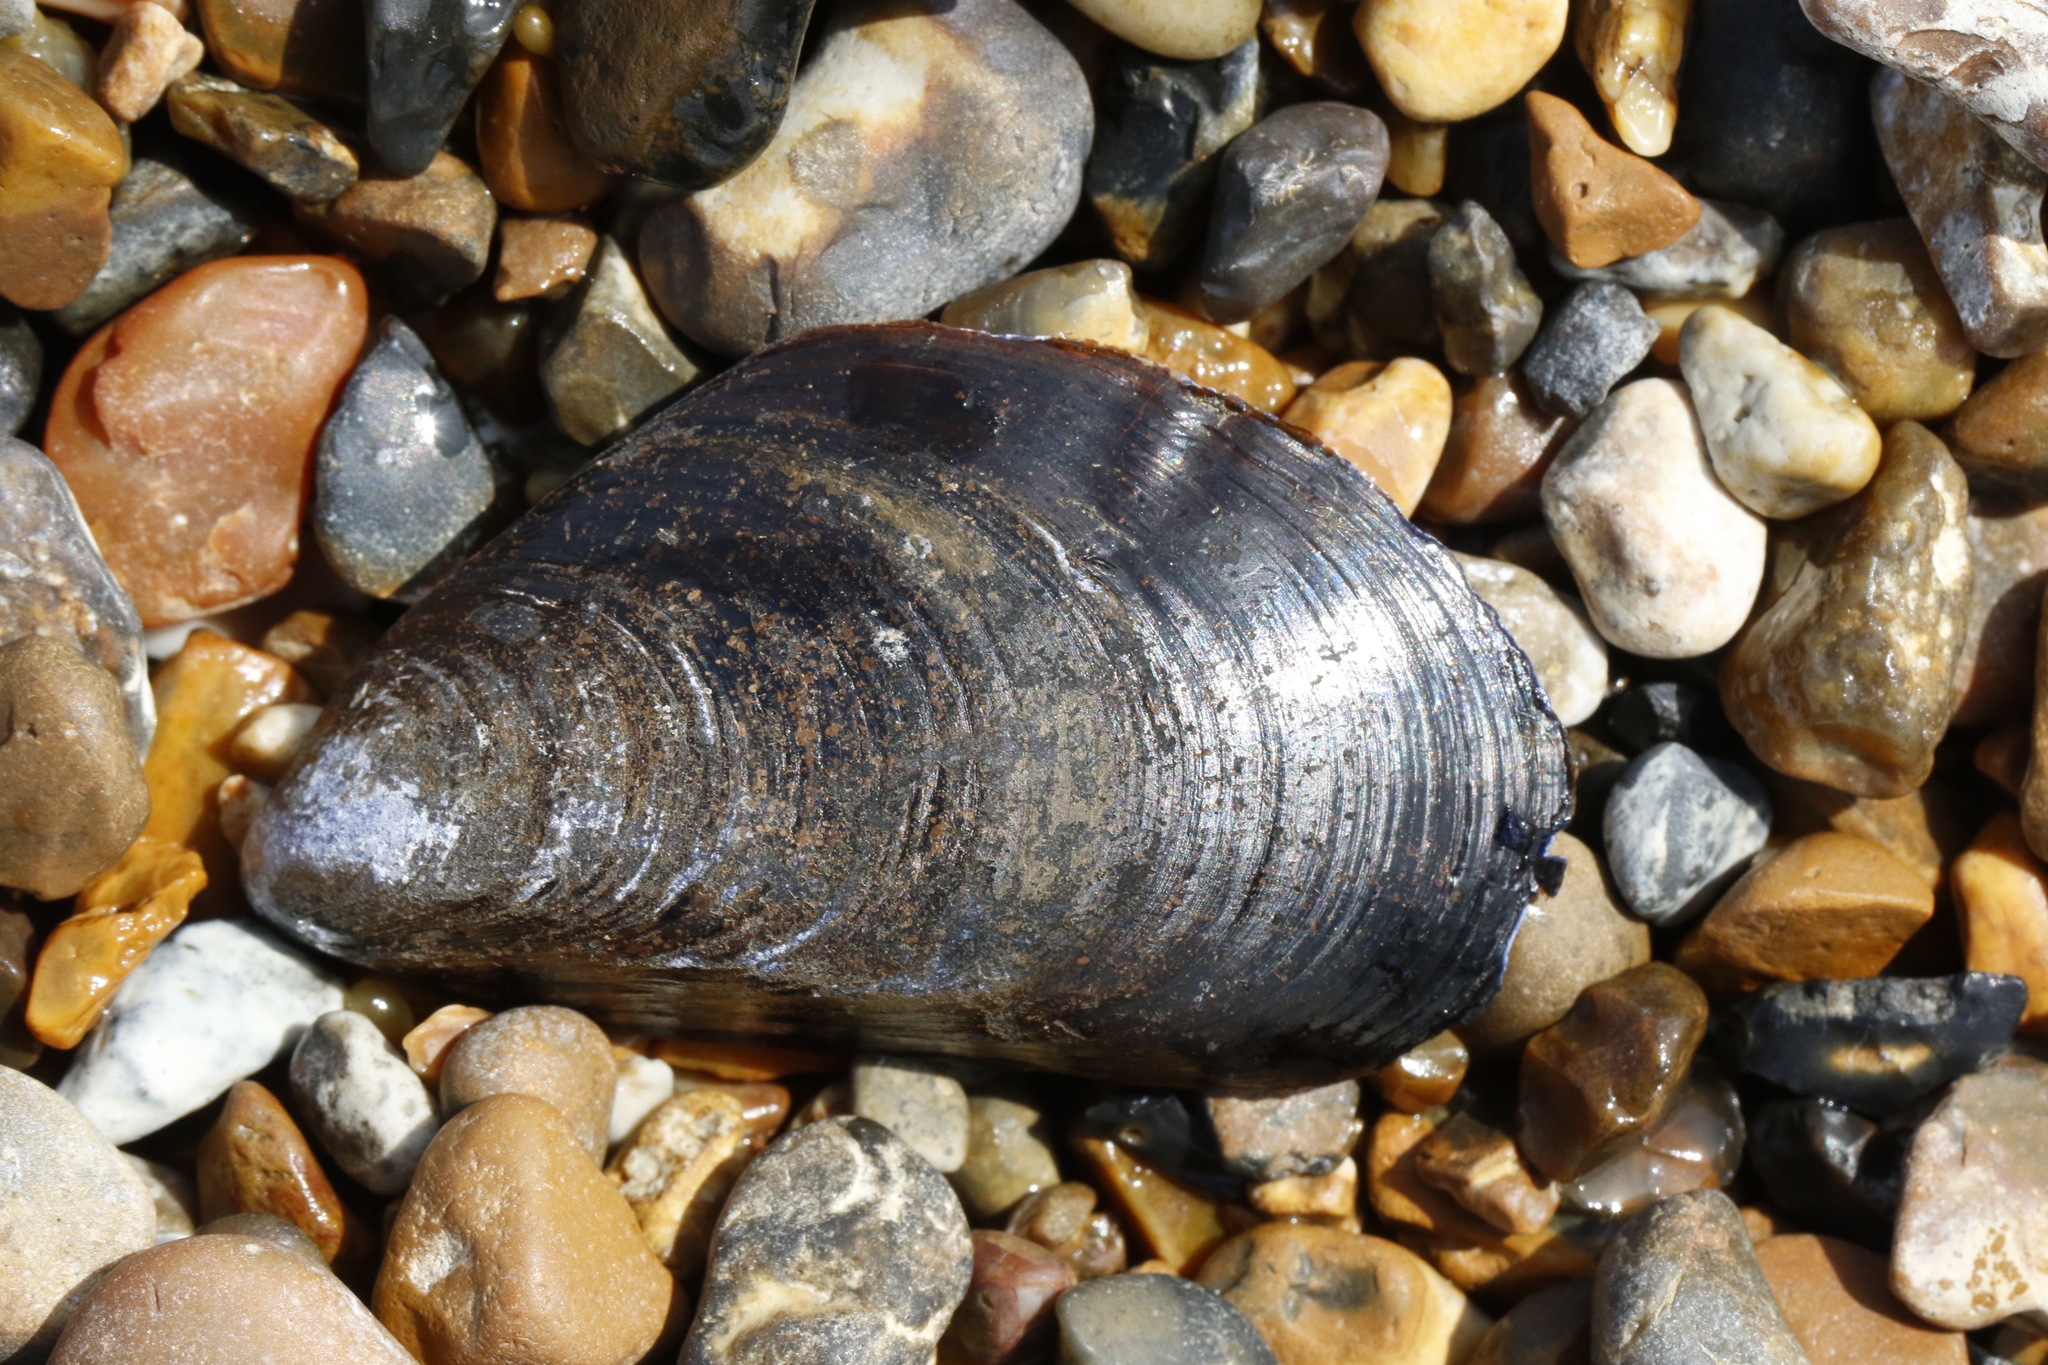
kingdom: Animalia
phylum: Mollusca
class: Bivalvia
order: Mytilida
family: Mytilidae
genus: Mytilus
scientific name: Mytilus edulis
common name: Blue mussel
